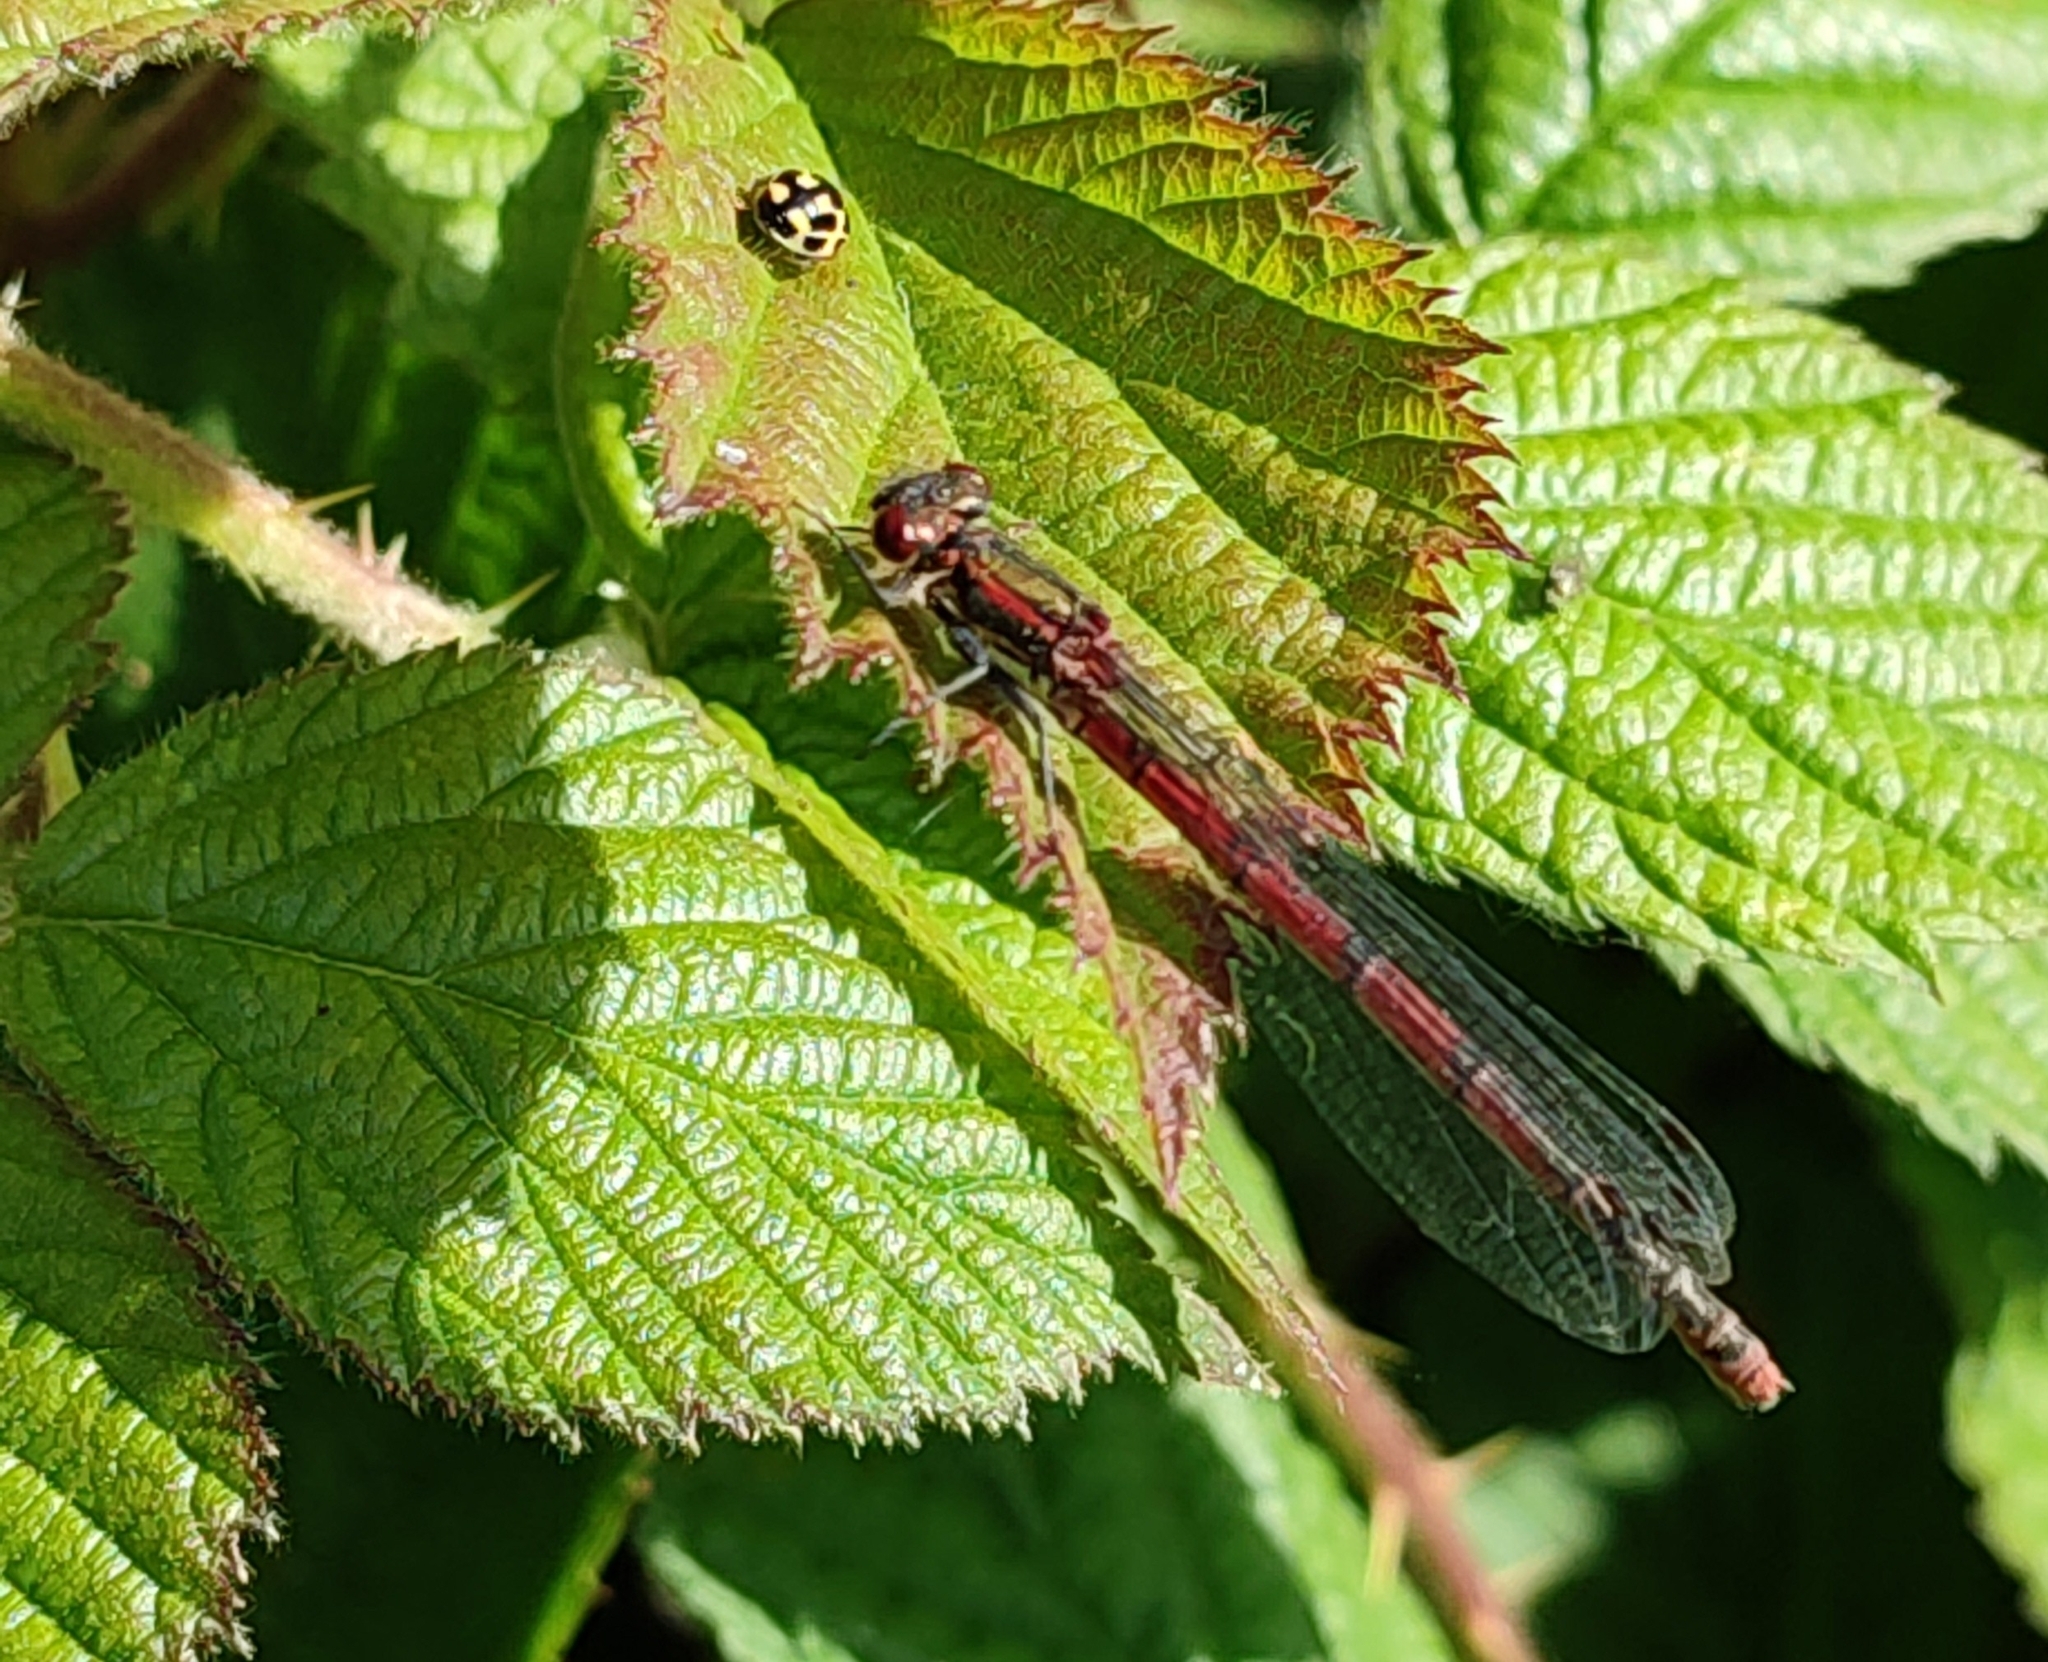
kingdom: Animalia
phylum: Arthropoda
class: Insecta
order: Odonata
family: Coenagrionidae
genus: Pyrrhosoma
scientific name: Pyrrhosoma nymphula
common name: Large red damsel
